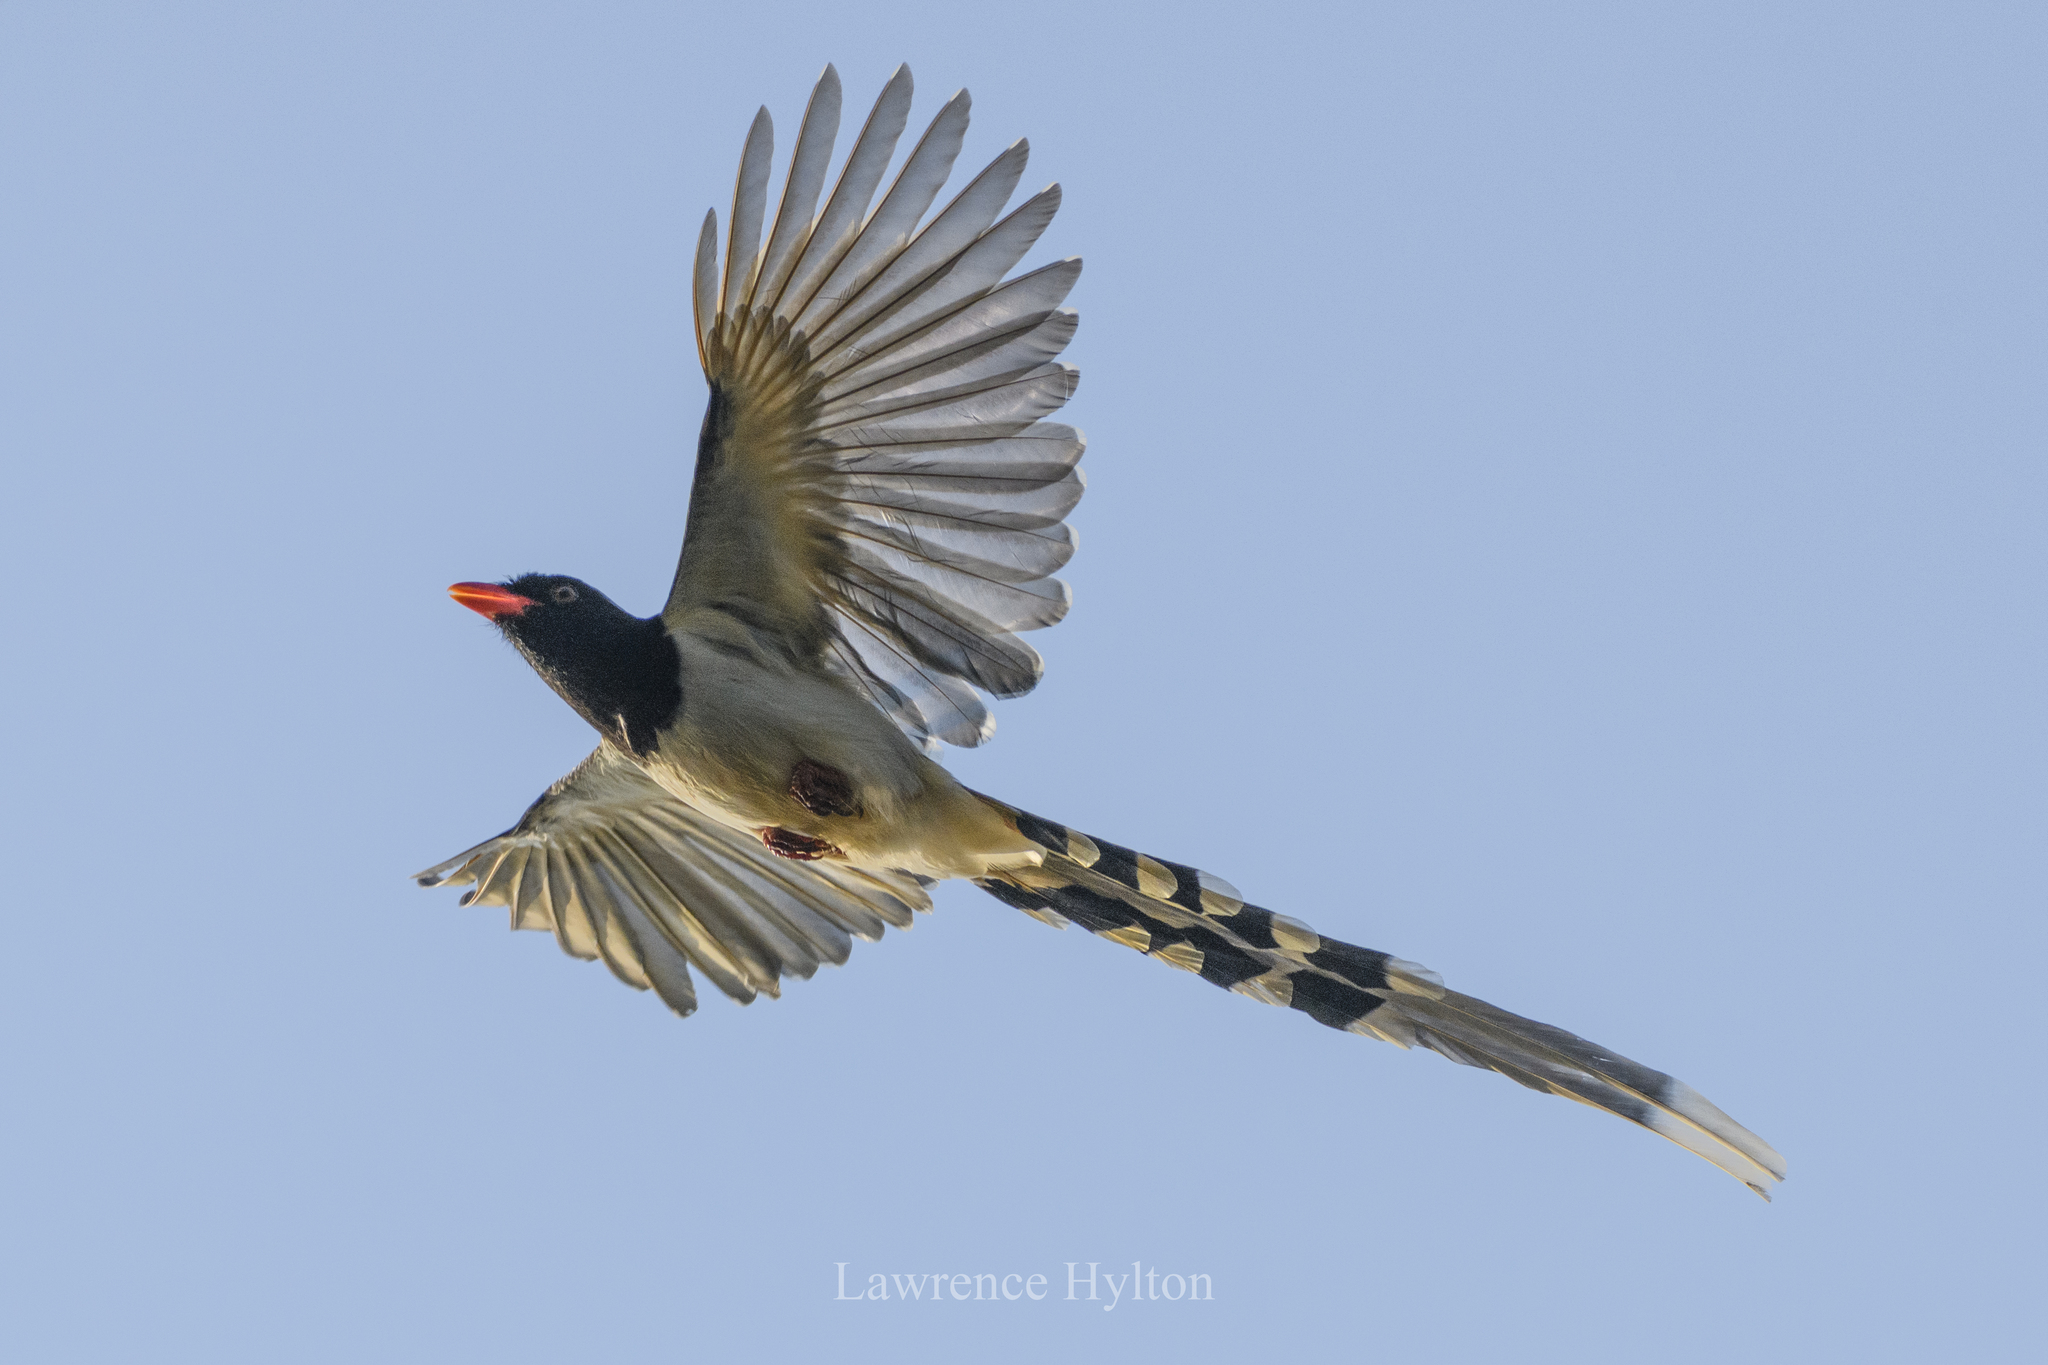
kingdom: Animalia
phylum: Chordata
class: Aves
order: Passeriformes
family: Corvidae
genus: Urocissa
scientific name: Urocissa erythroryncha
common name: Red-billed blue magpie
